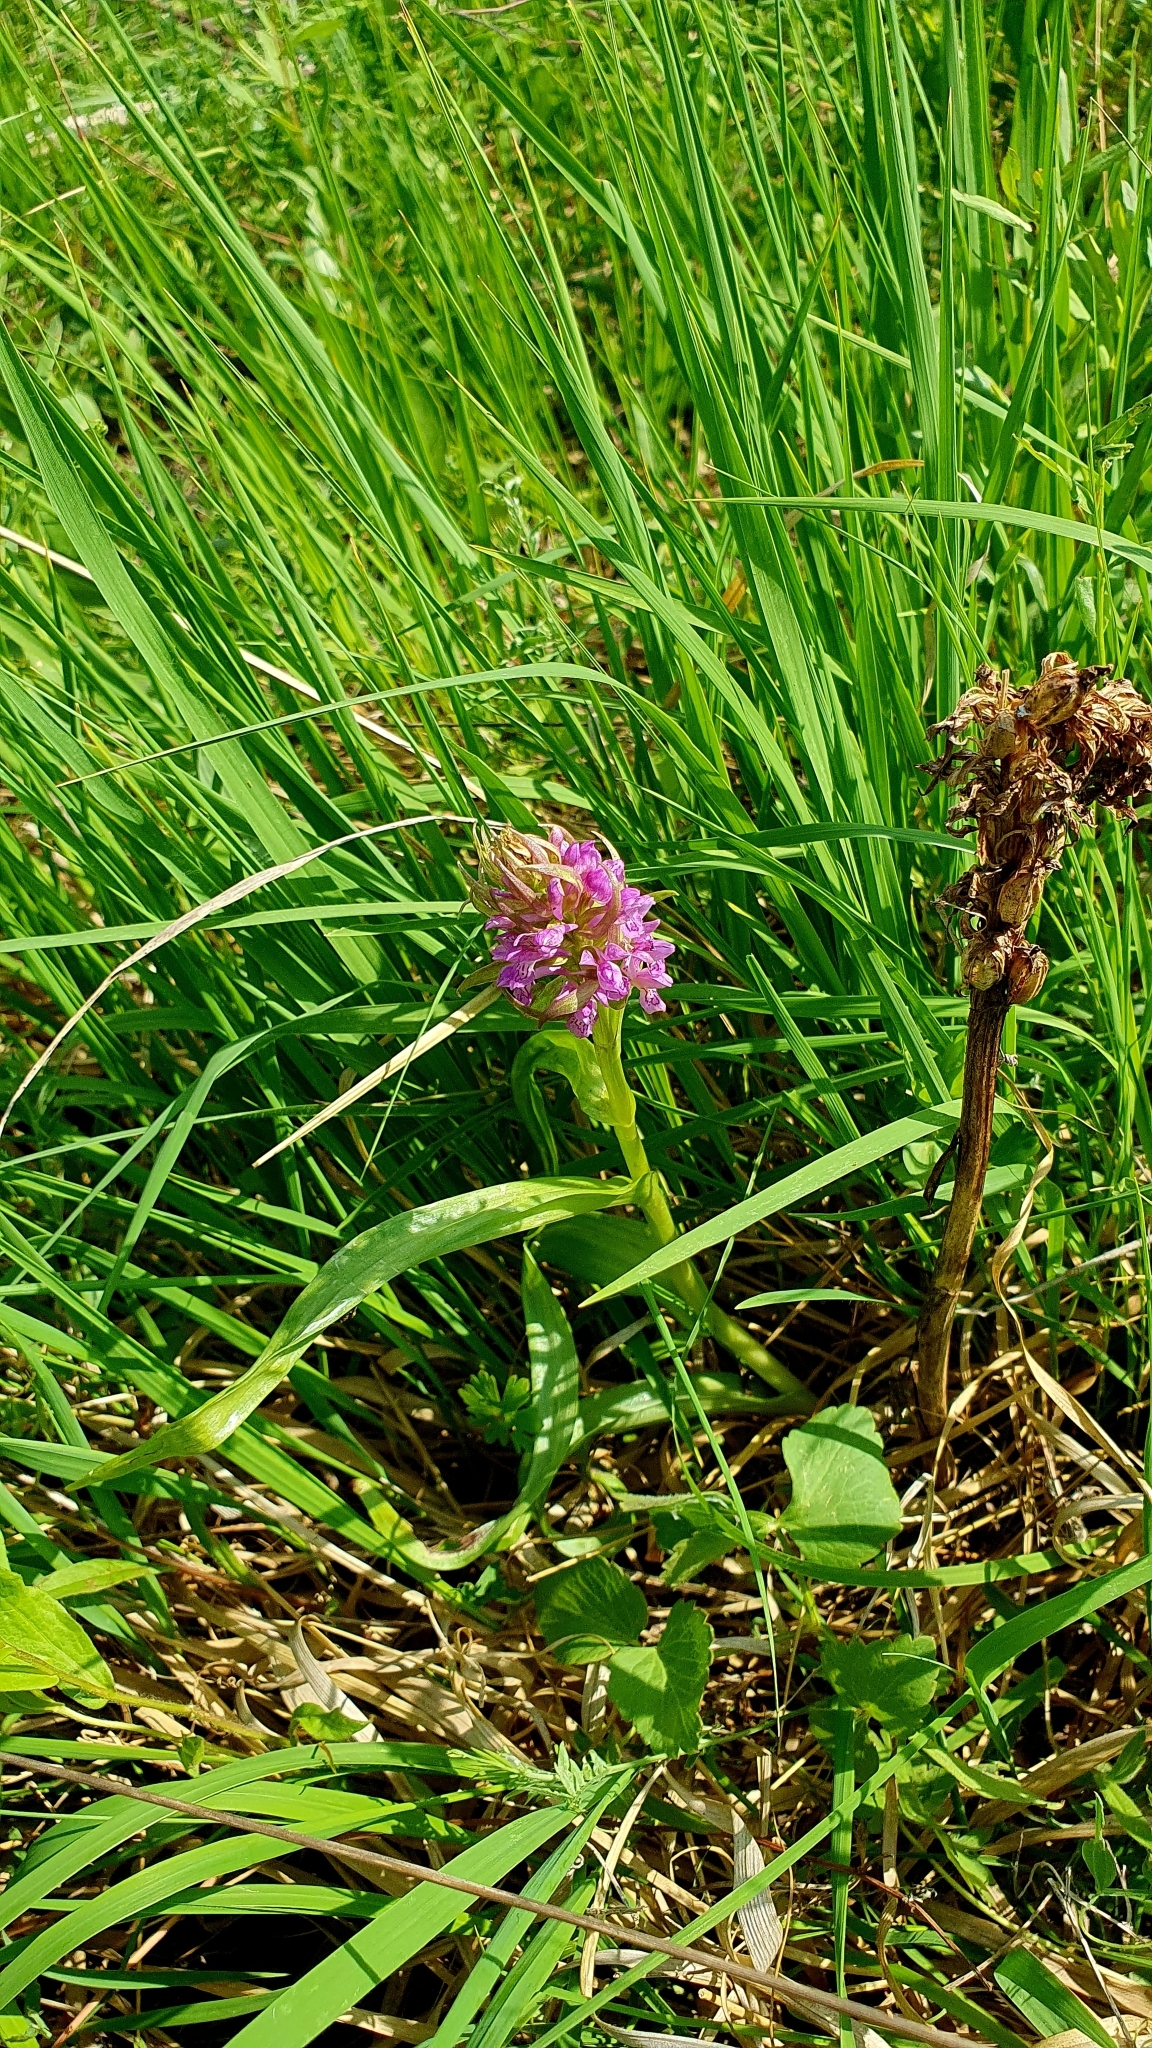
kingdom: Plantae
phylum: Tracheophyta
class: Liliopsida
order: Asparagales
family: Orchidaceae
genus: Dactylorhiza
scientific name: Dactylorhiza incarnata
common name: Early marsh-orchid
